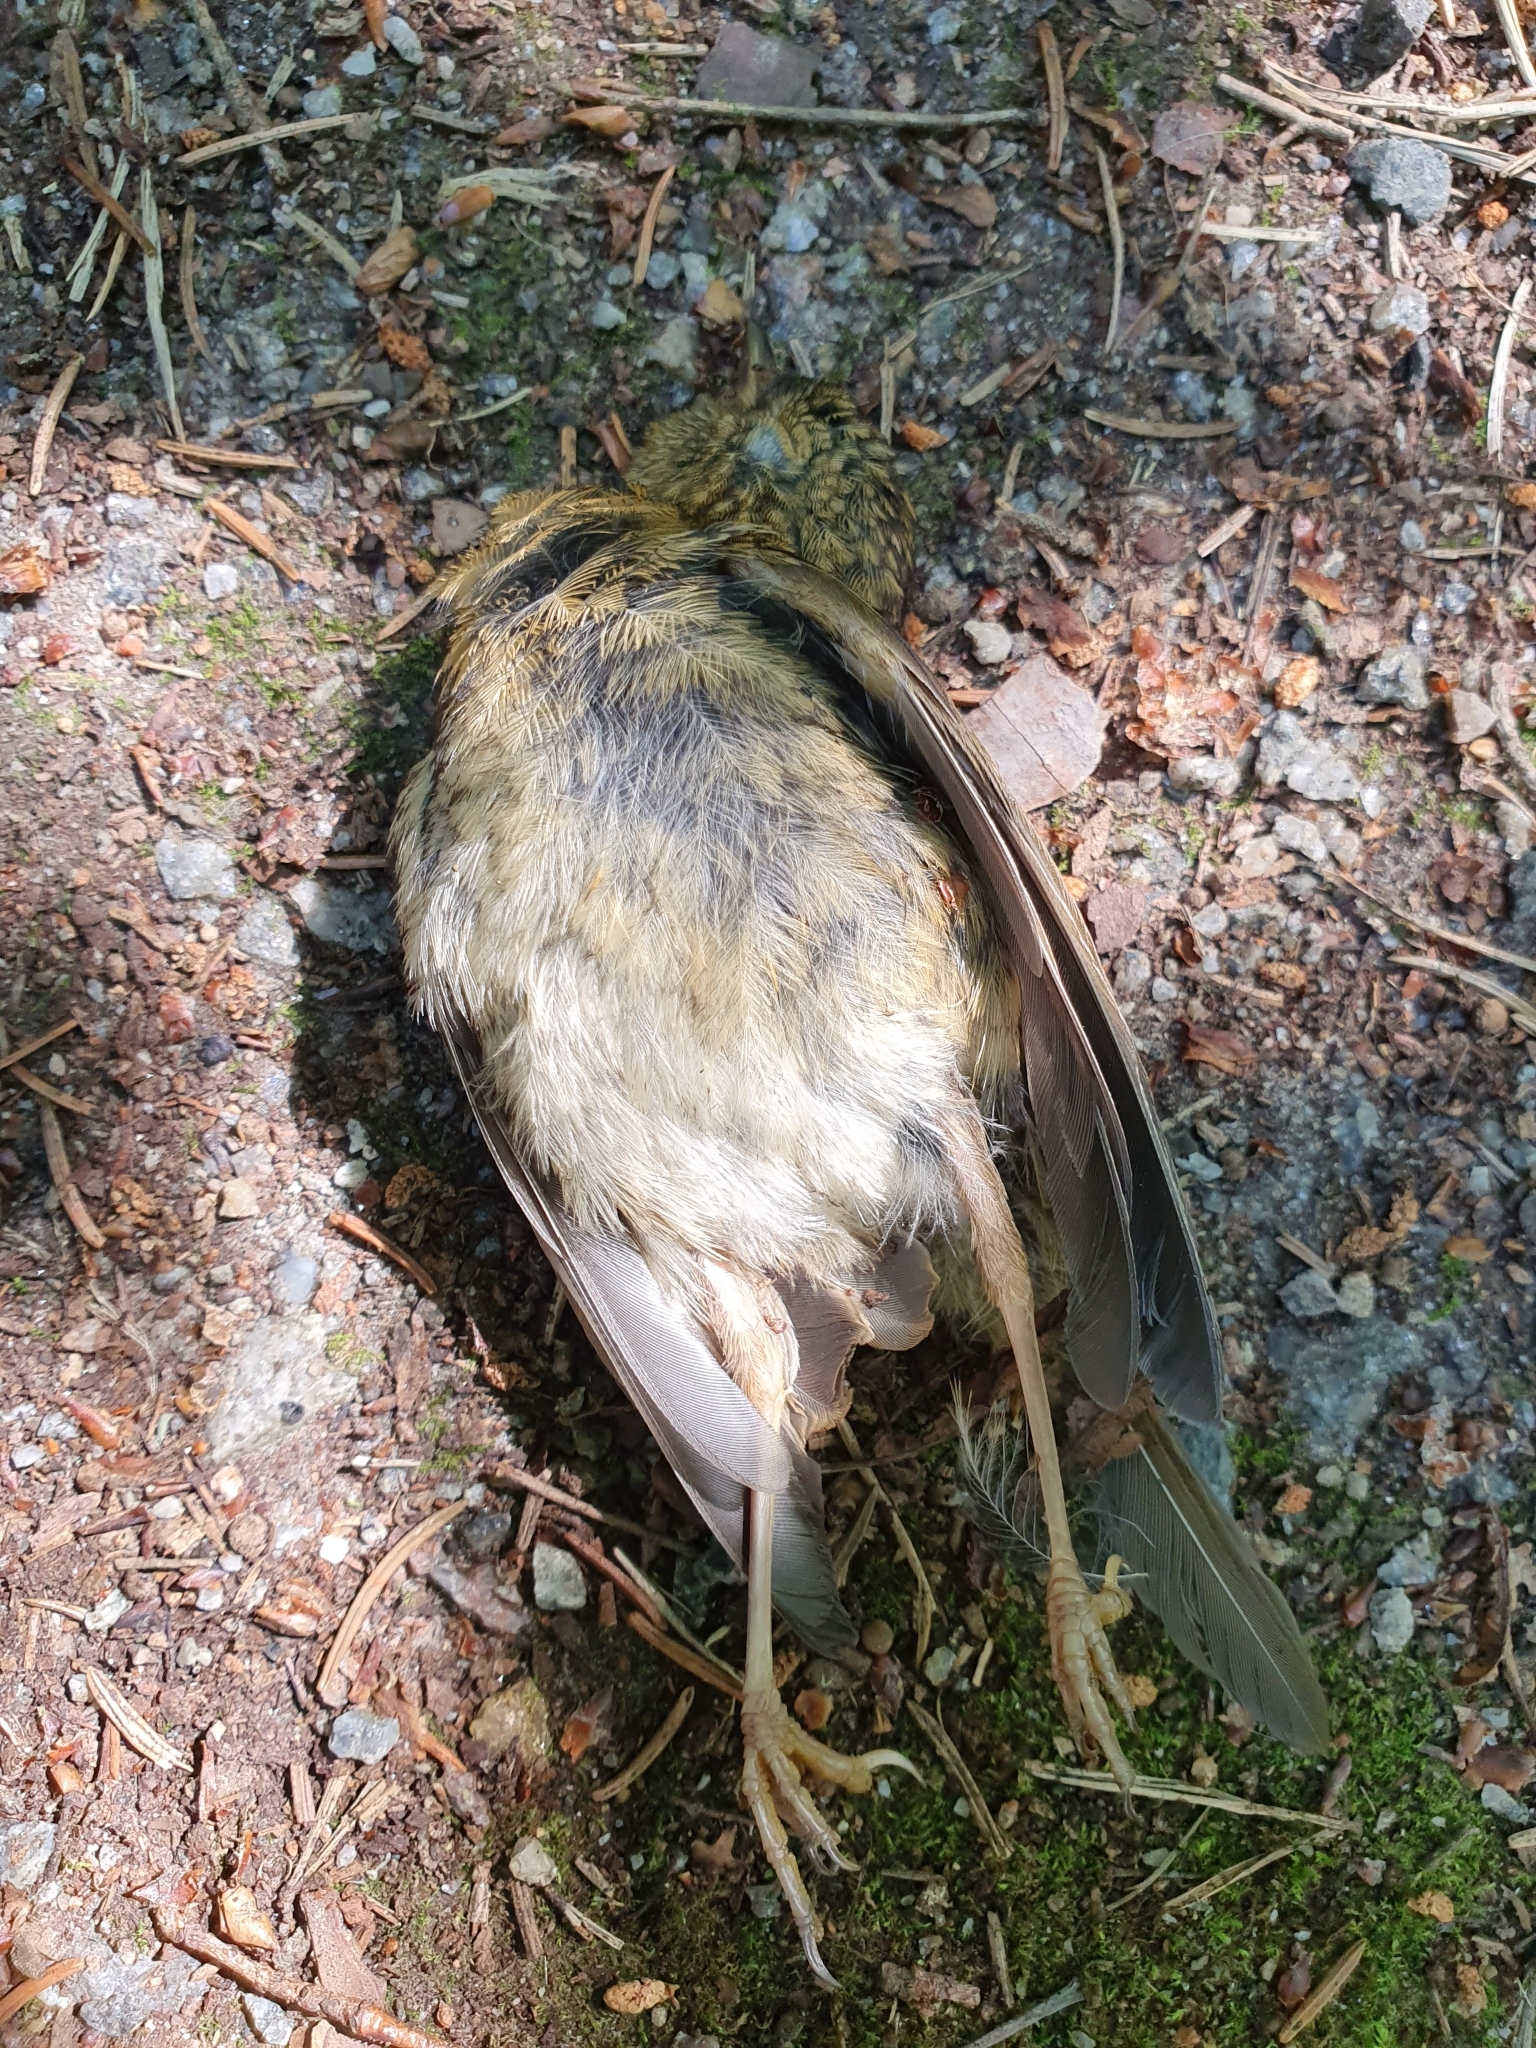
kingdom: Animalia
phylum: Chordata
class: Aves
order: Passeriformes
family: Muscicapidae
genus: Erithacus
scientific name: Erithacus rubecula
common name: European robin
